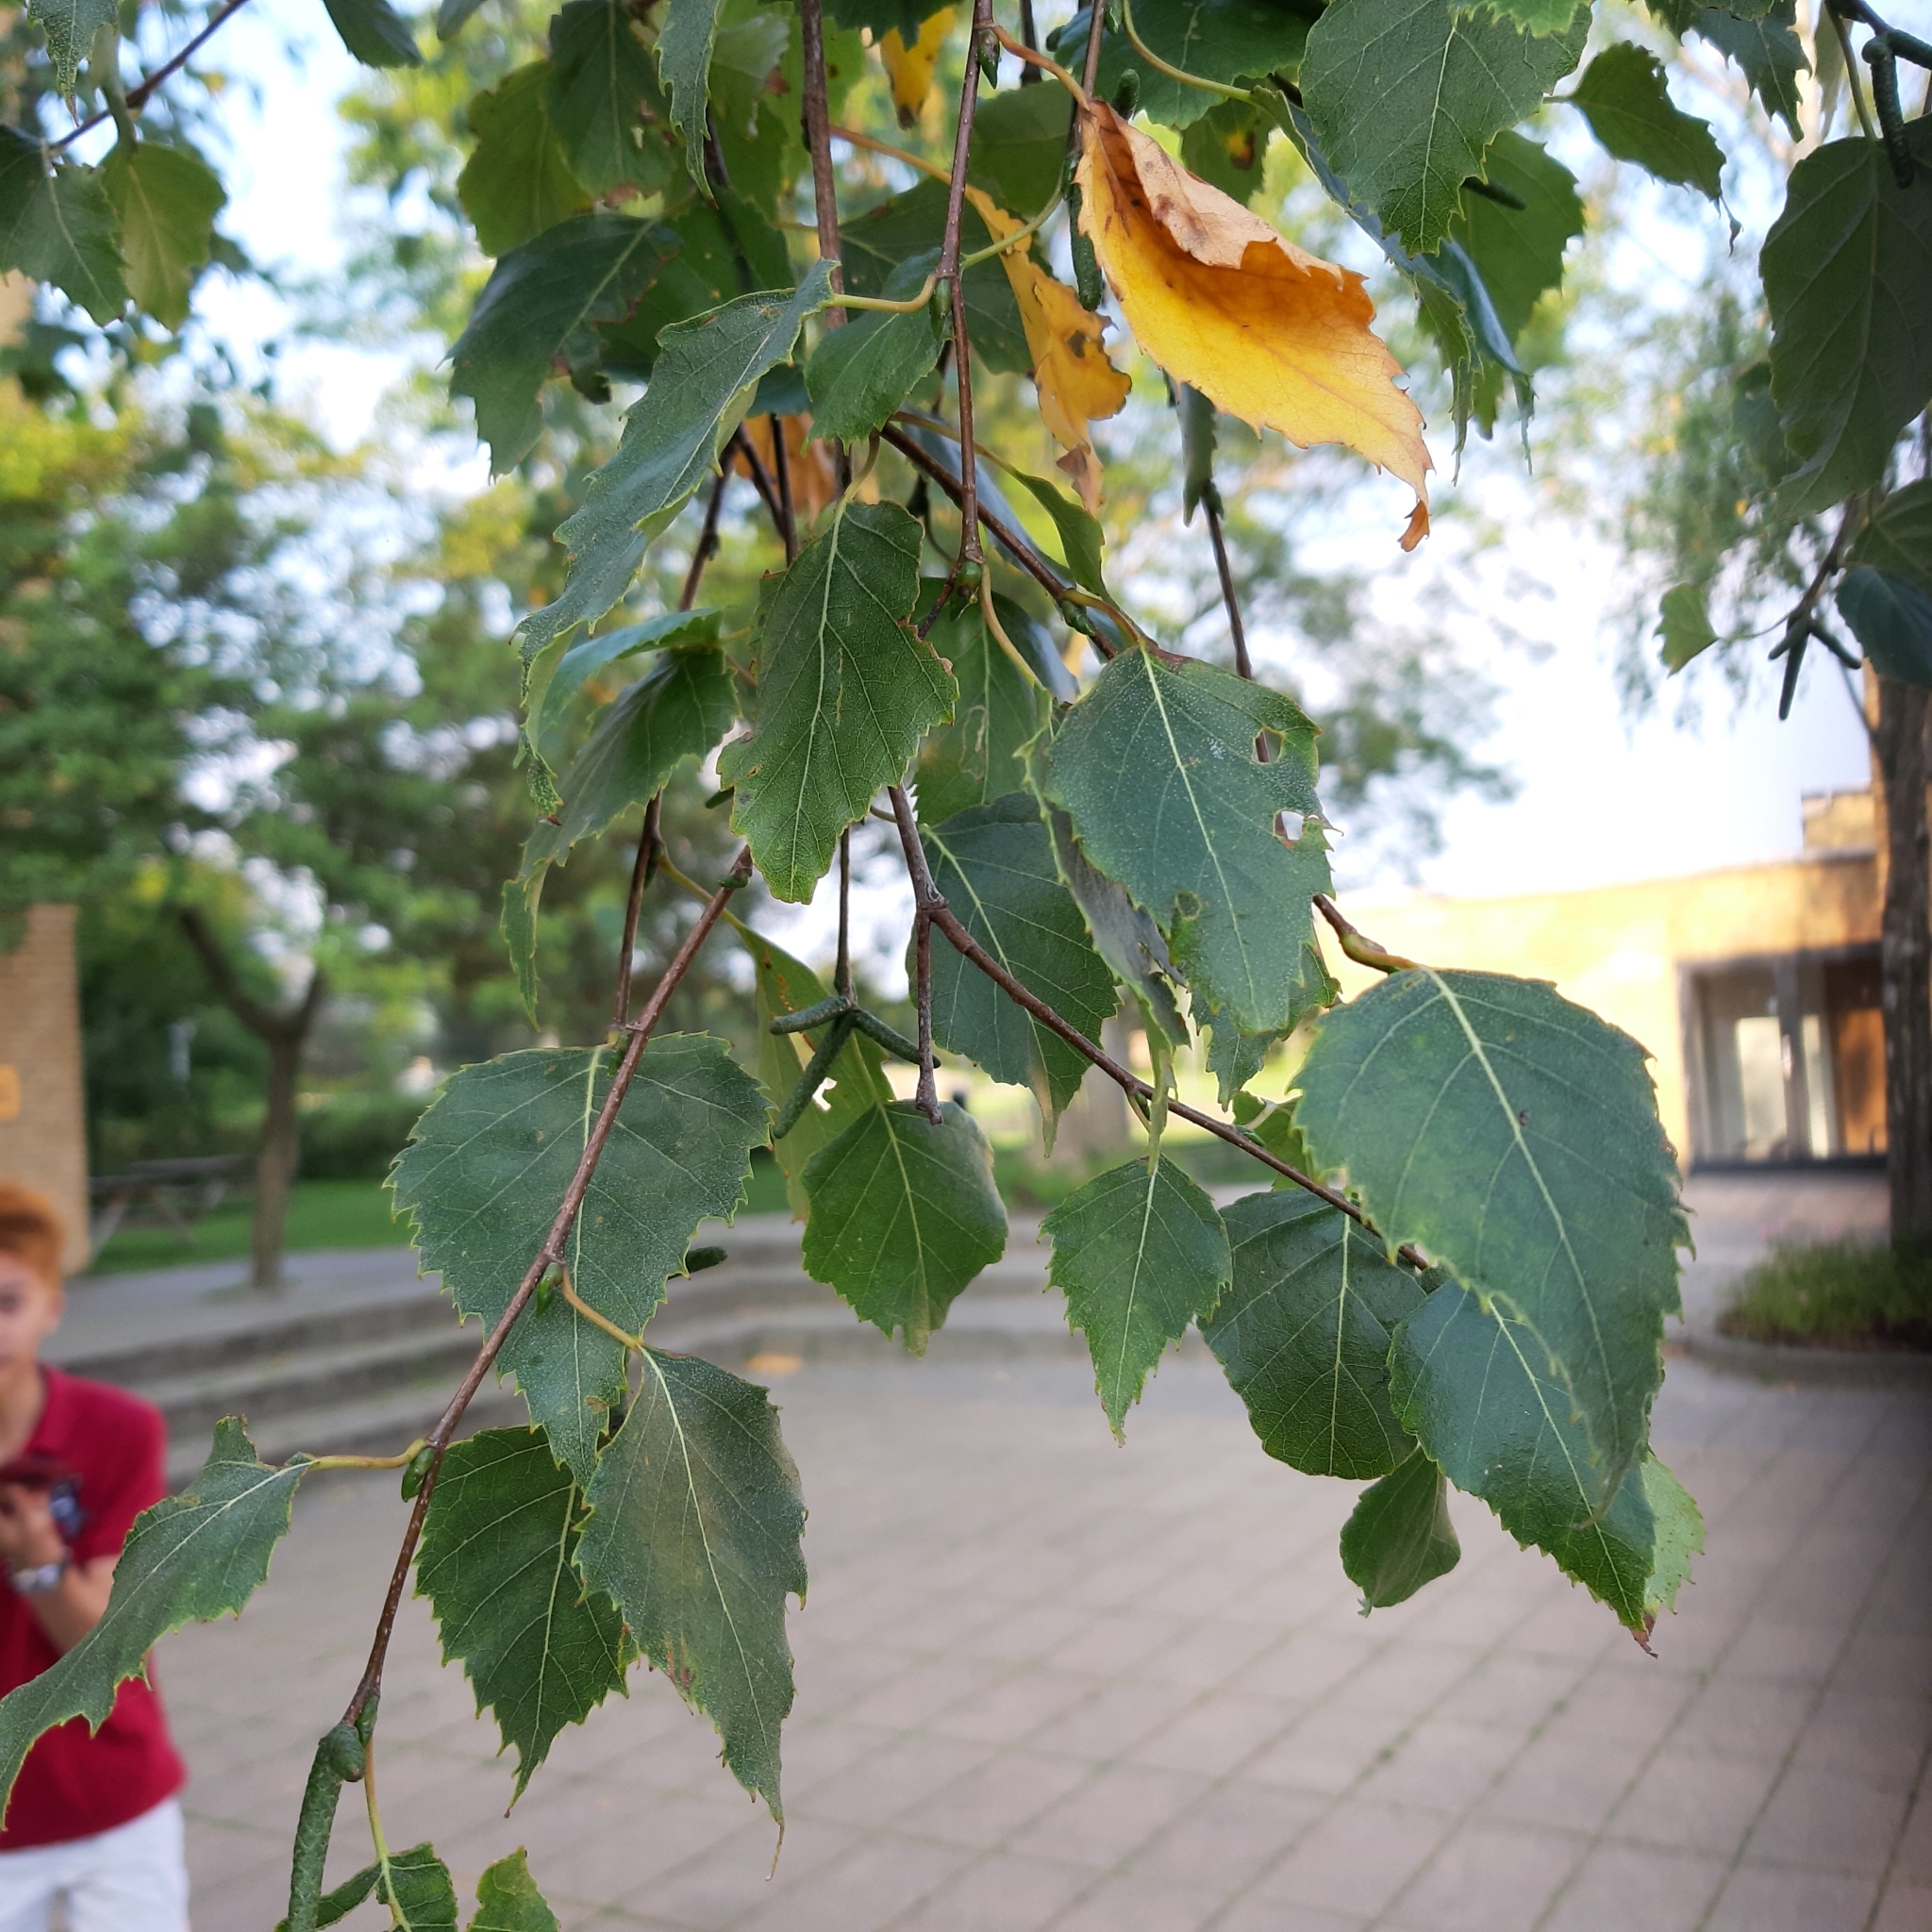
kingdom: Plantae
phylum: Tracheophyta
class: Magnoliopsida
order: Fagales
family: Betulaceae
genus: Betula
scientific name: Betula pendula
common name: Silver birch
